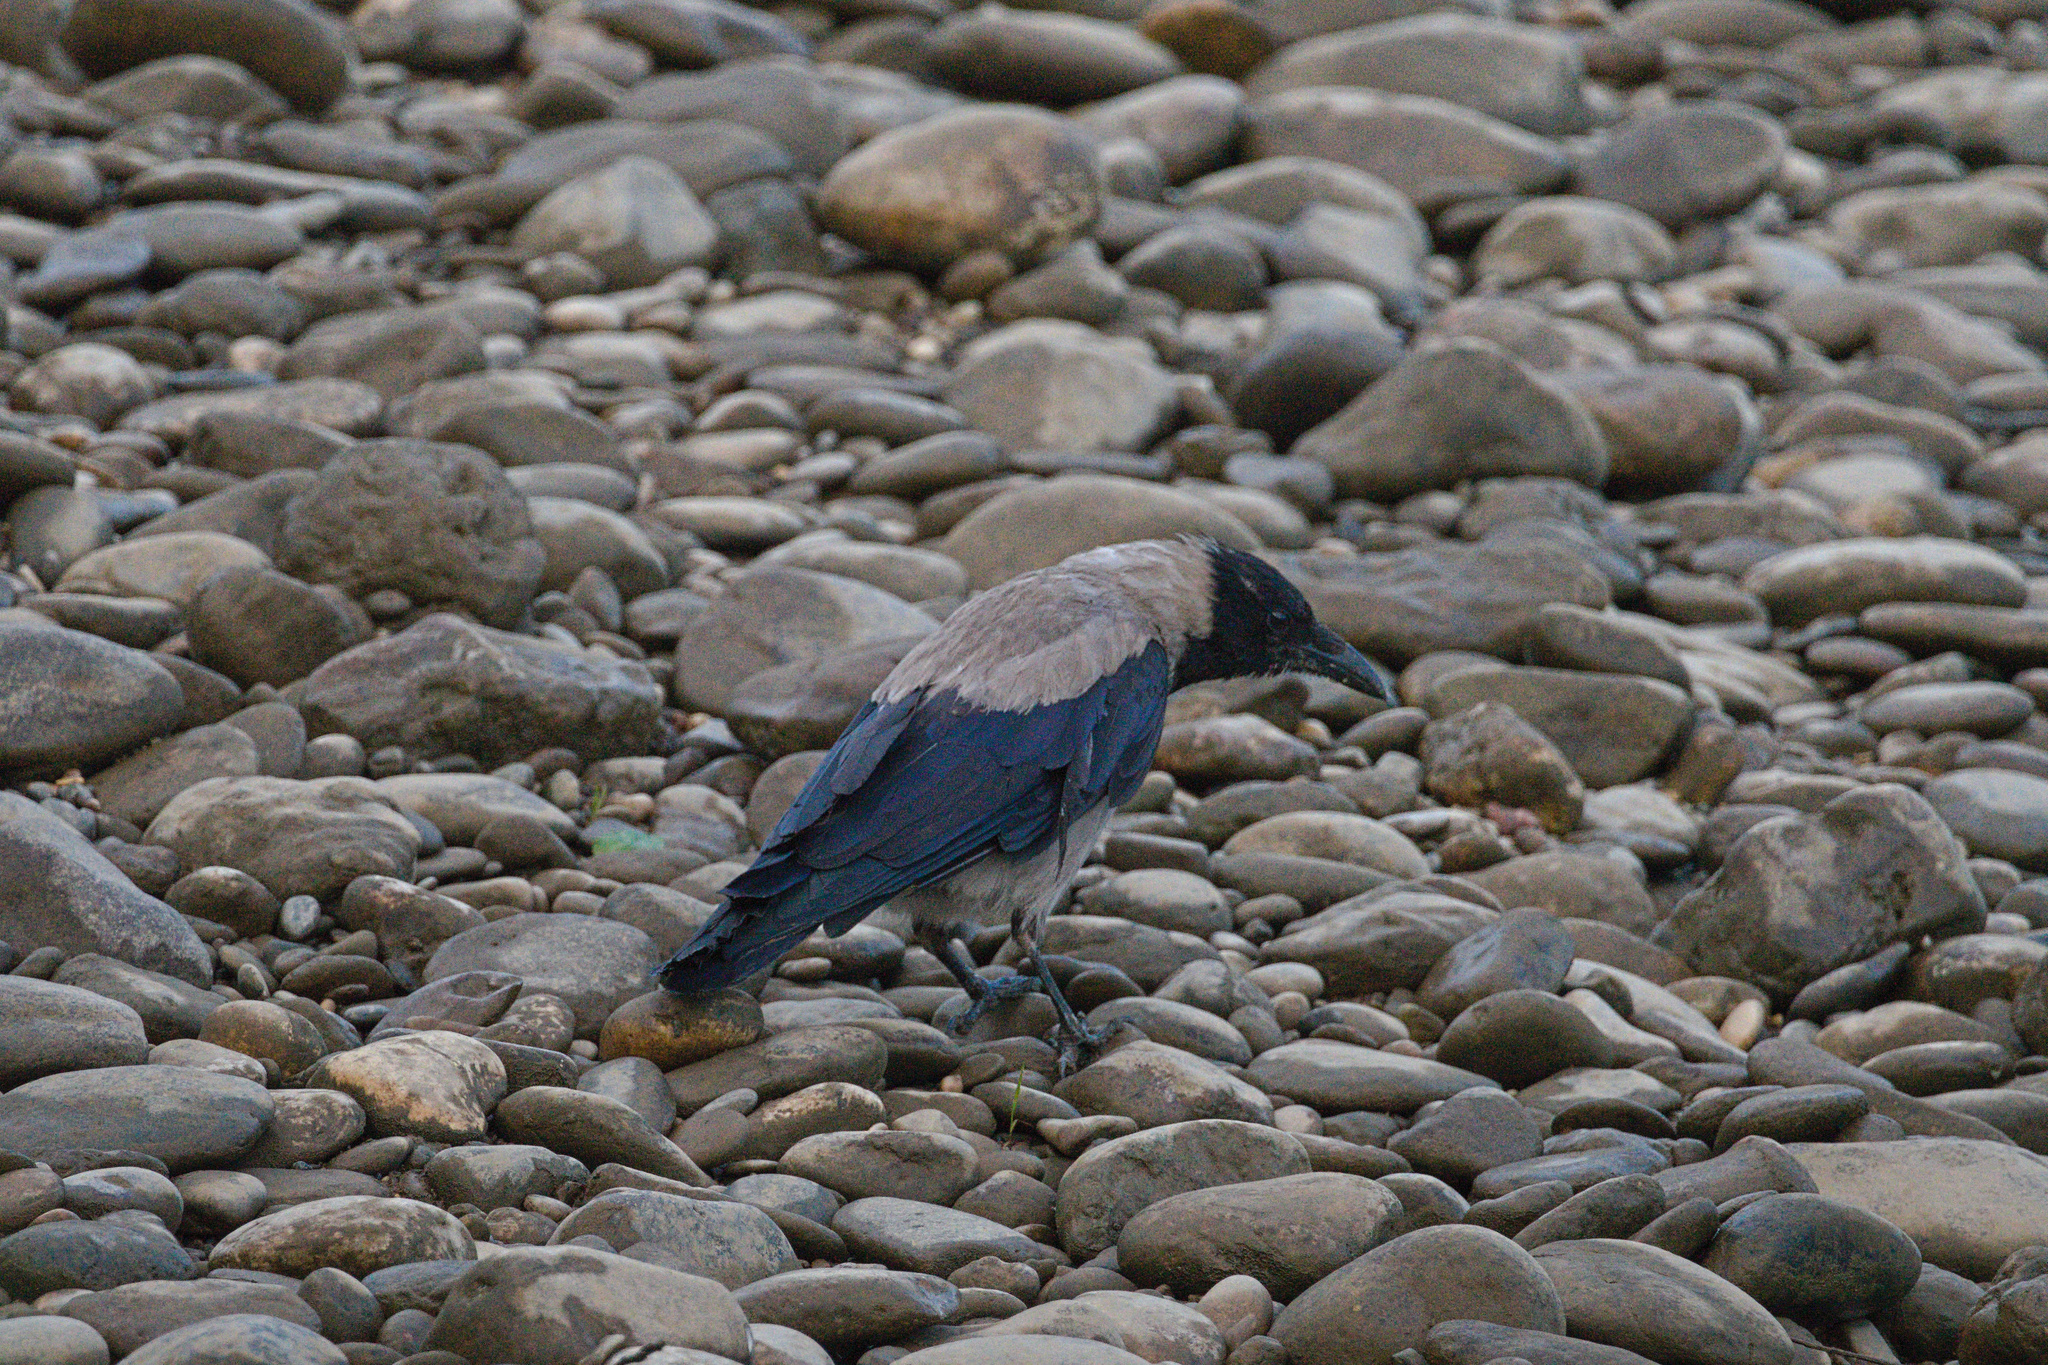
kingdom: Animalia
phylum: Chordata
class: Aves
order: Passeriformes
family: Corvidae
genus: Corvus
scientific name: Corvus cornix
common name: Hooded crow
